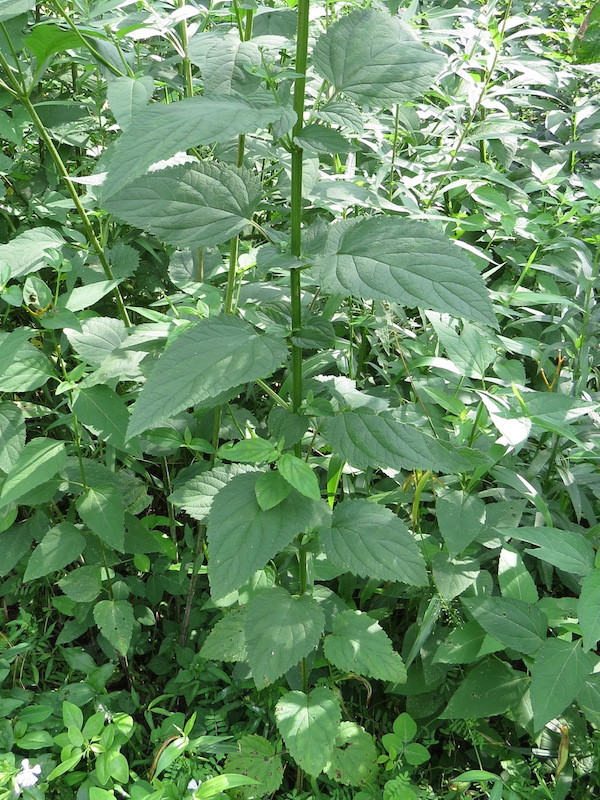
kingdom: Plantae
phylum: Tracheophyta
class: Magnoliopsida
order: Lamiales
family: Scrophulariaceae
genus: Scrophularia
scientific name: Scrophularia marilandica
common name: Eastern figwort
